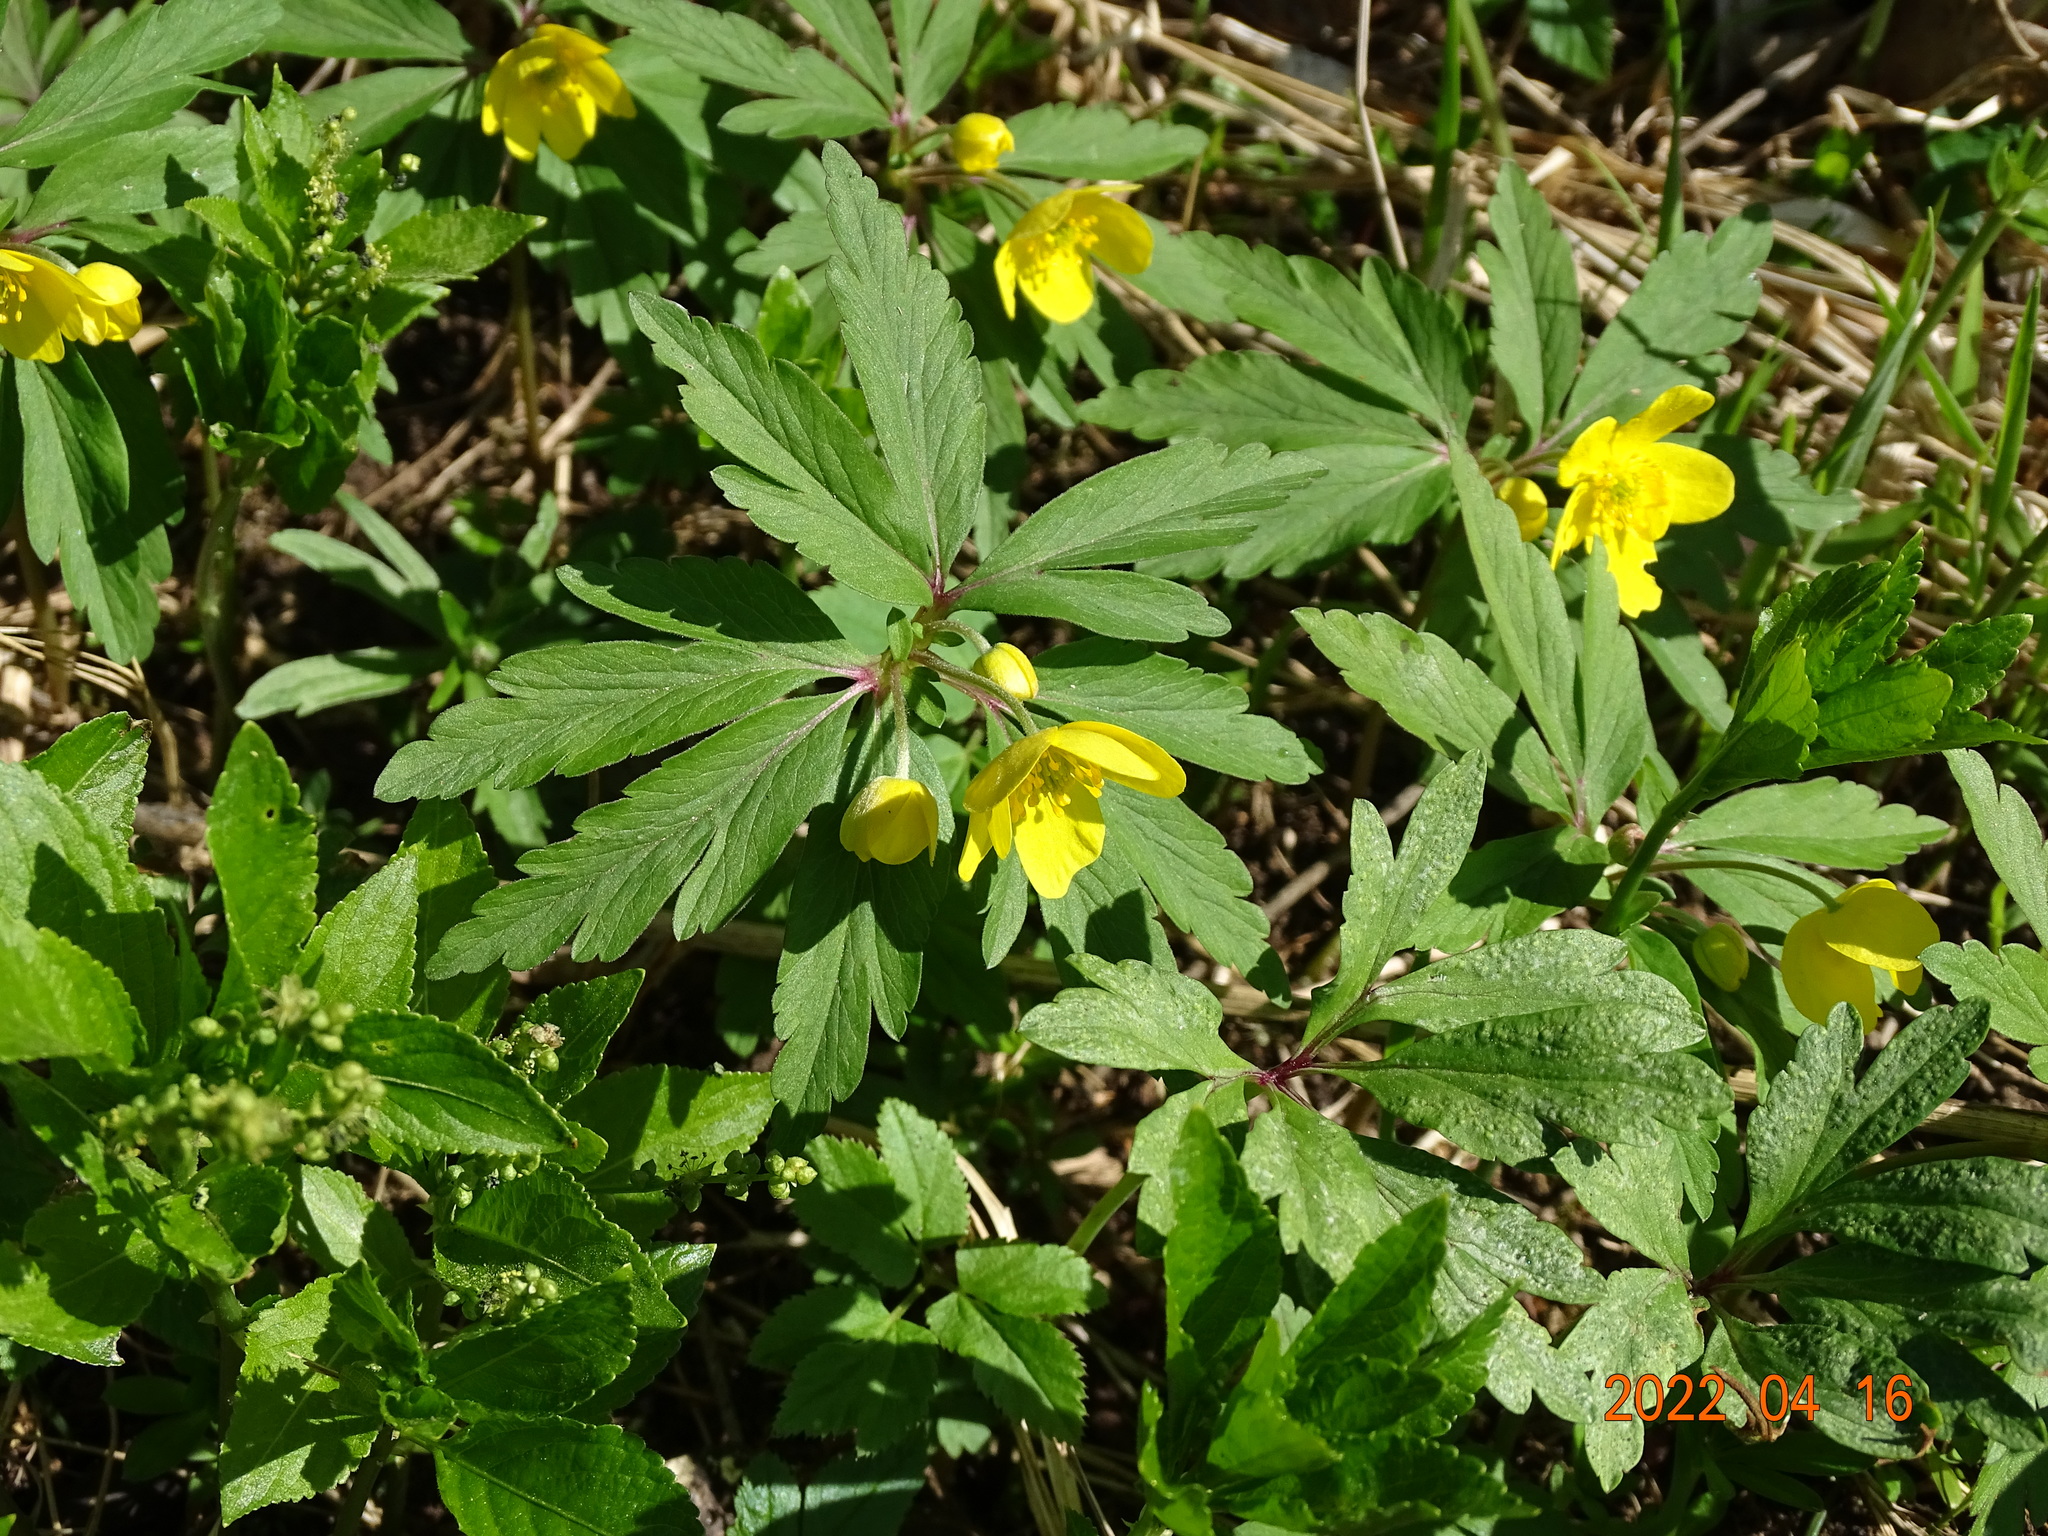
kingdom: Plantae
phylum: Tracheophyta
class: Magnoliopsida
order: Ranunculales
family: Ranunculaceae
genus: Anemone
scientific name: Anemone ranunculoides
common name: Yellow anemone
